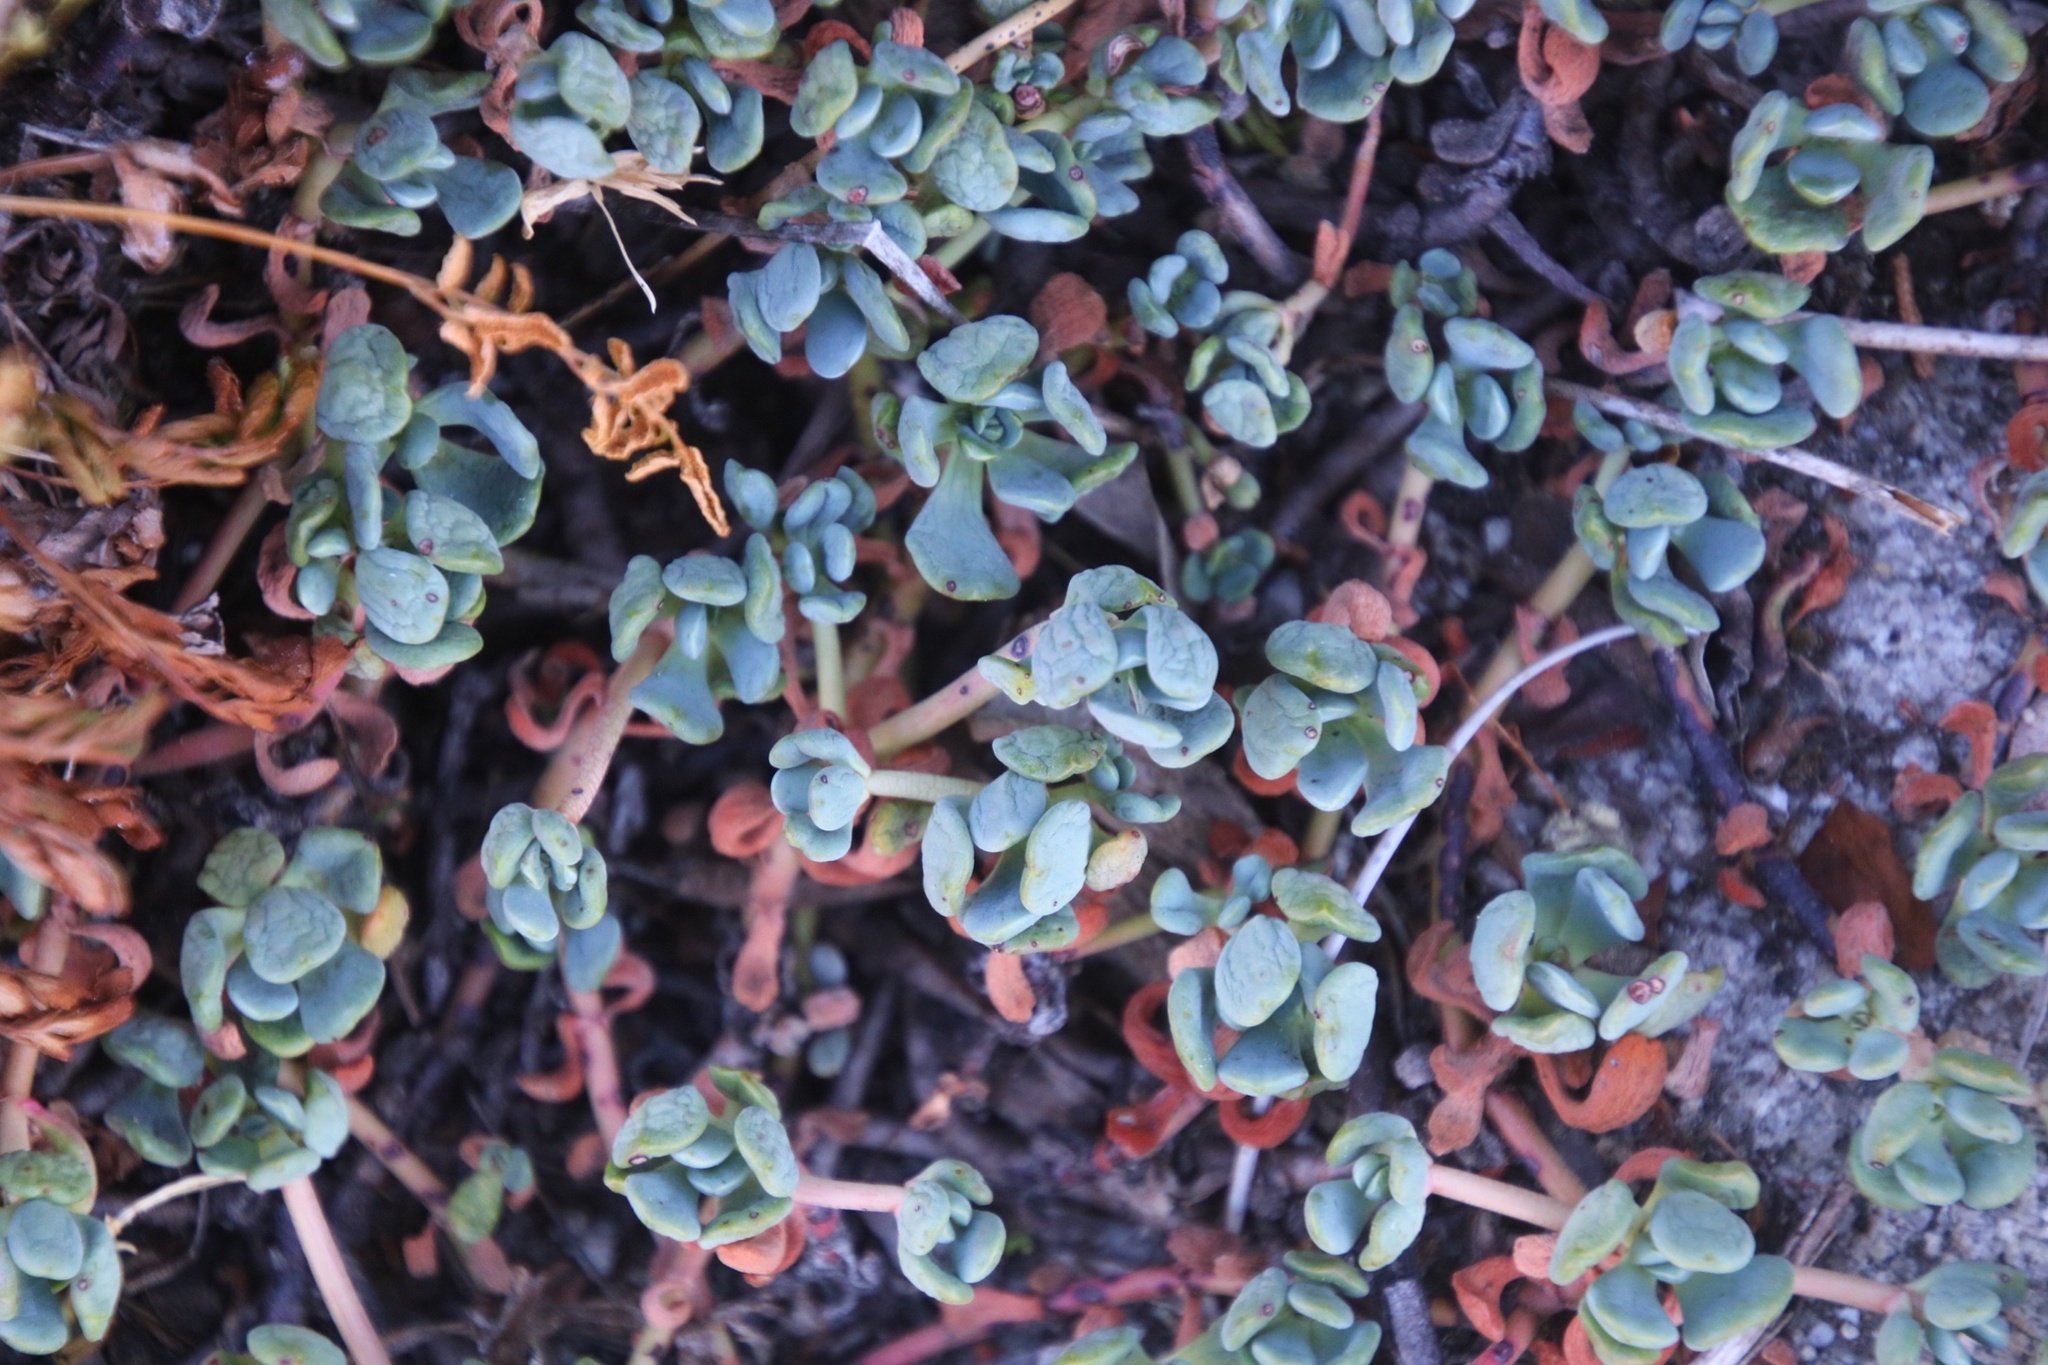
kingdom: Plantae
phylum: Tracheophyta
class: Magnoliopsida
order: Saxifragales
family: Crassulaceae
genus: Sedum
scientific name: Sedum obtusatum
